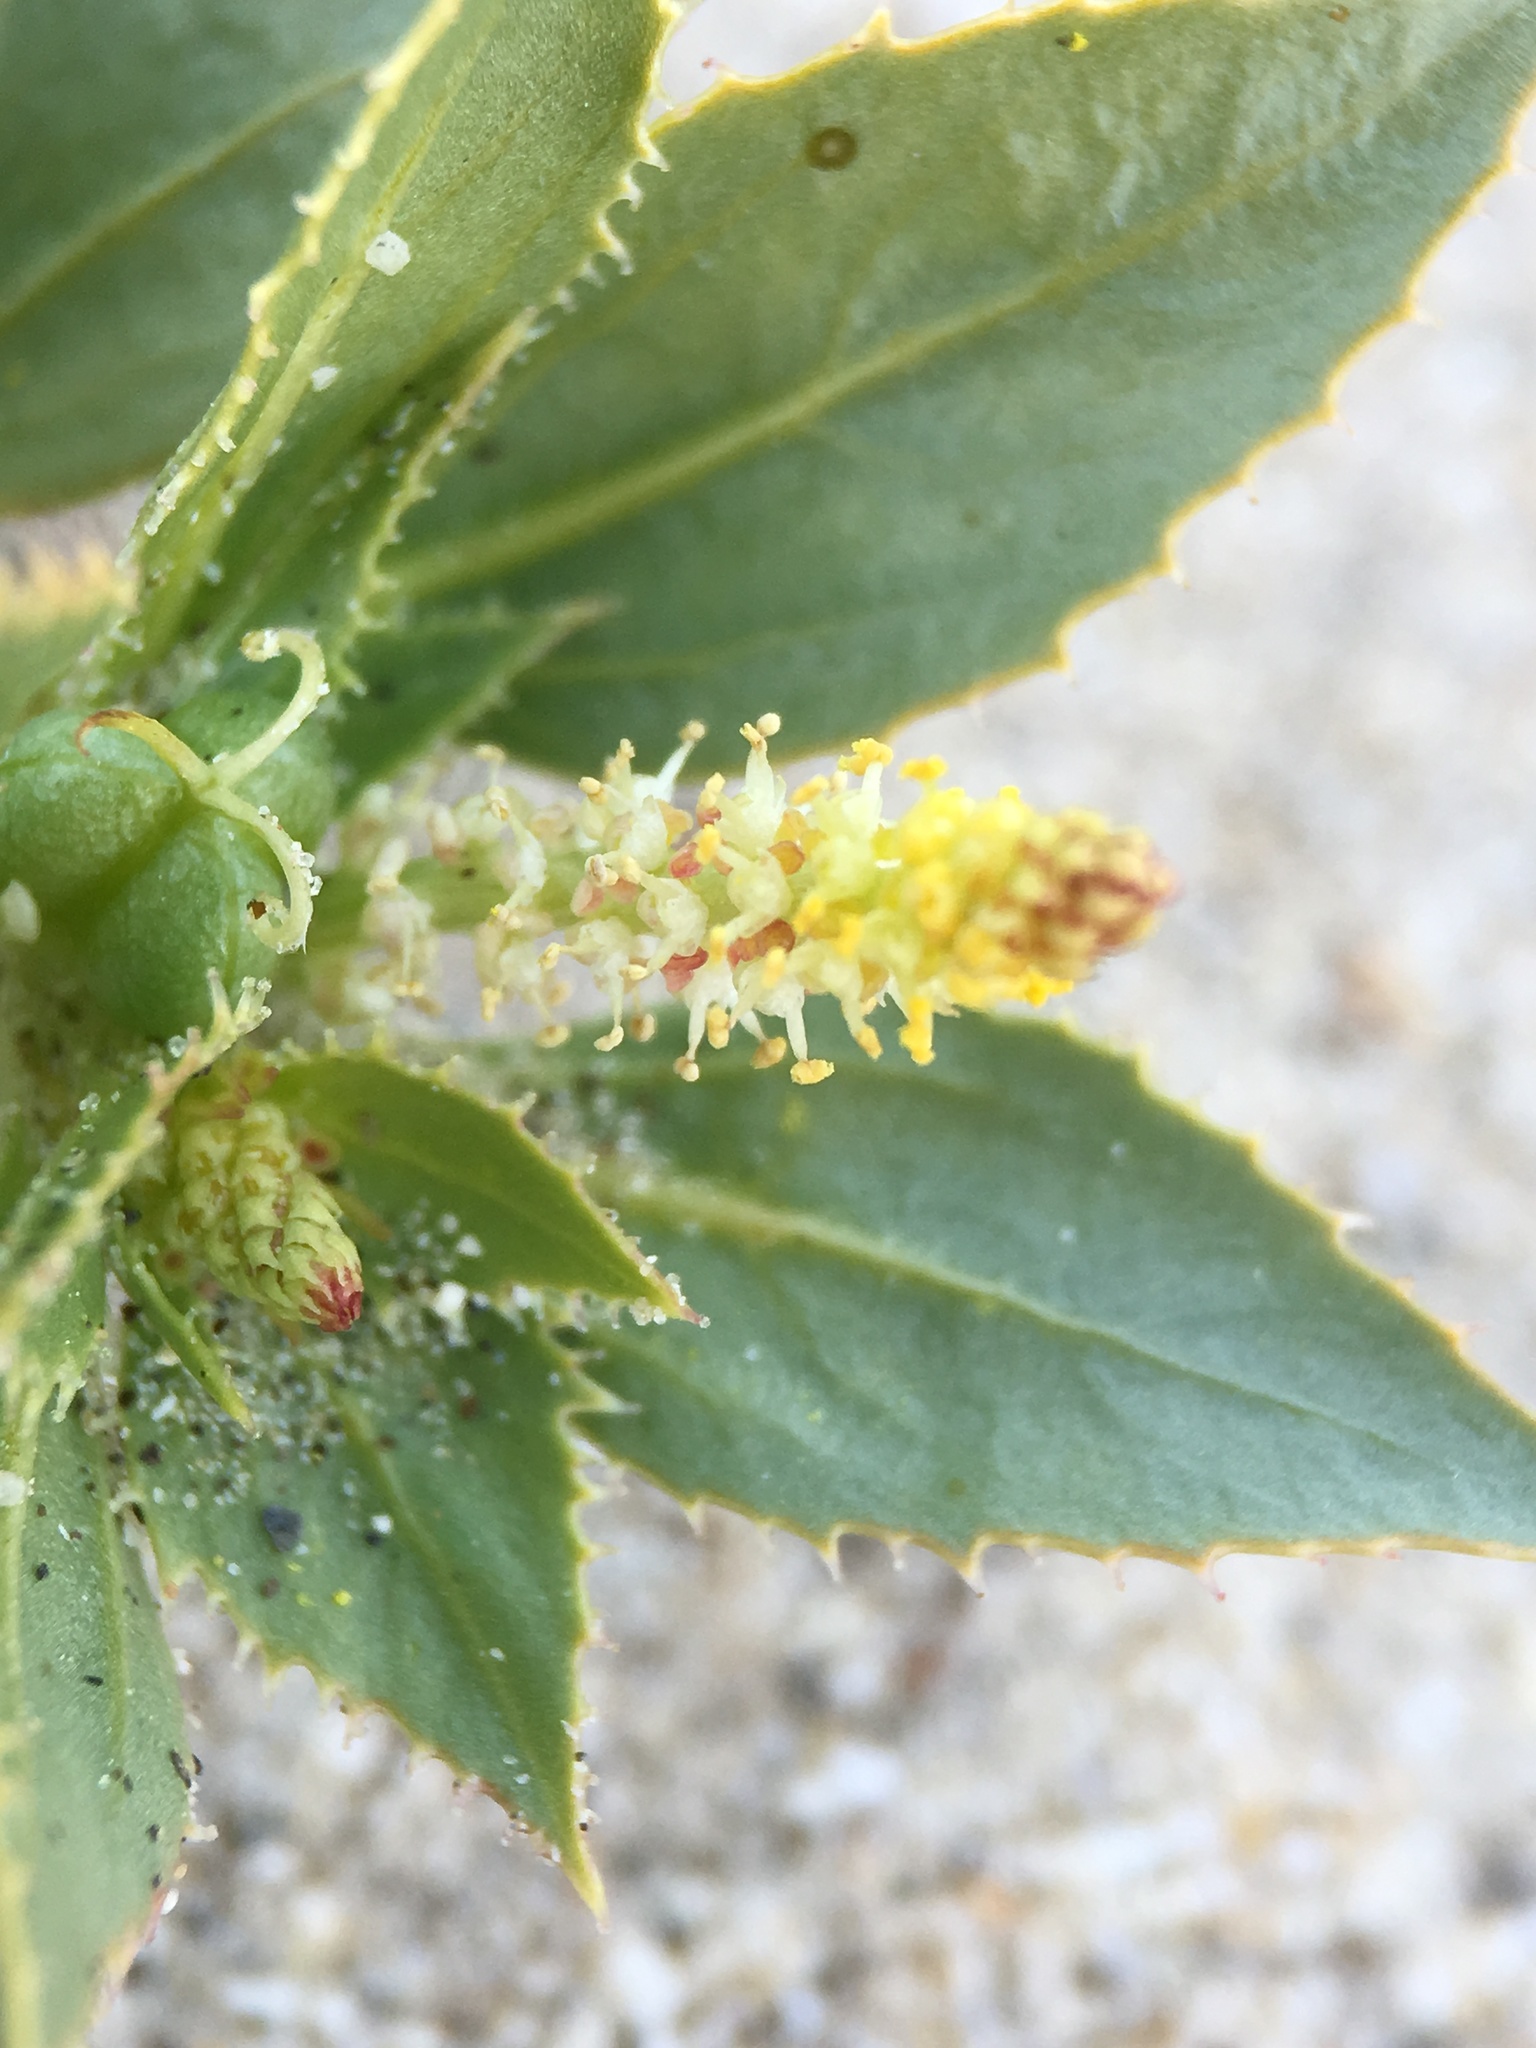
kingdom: Plantae
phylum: Tracheophyta
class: Magnoliopsida
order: Malpighiales
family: Euphorbiaceae
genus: Stillingia
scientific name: Stillingia spinulosa
